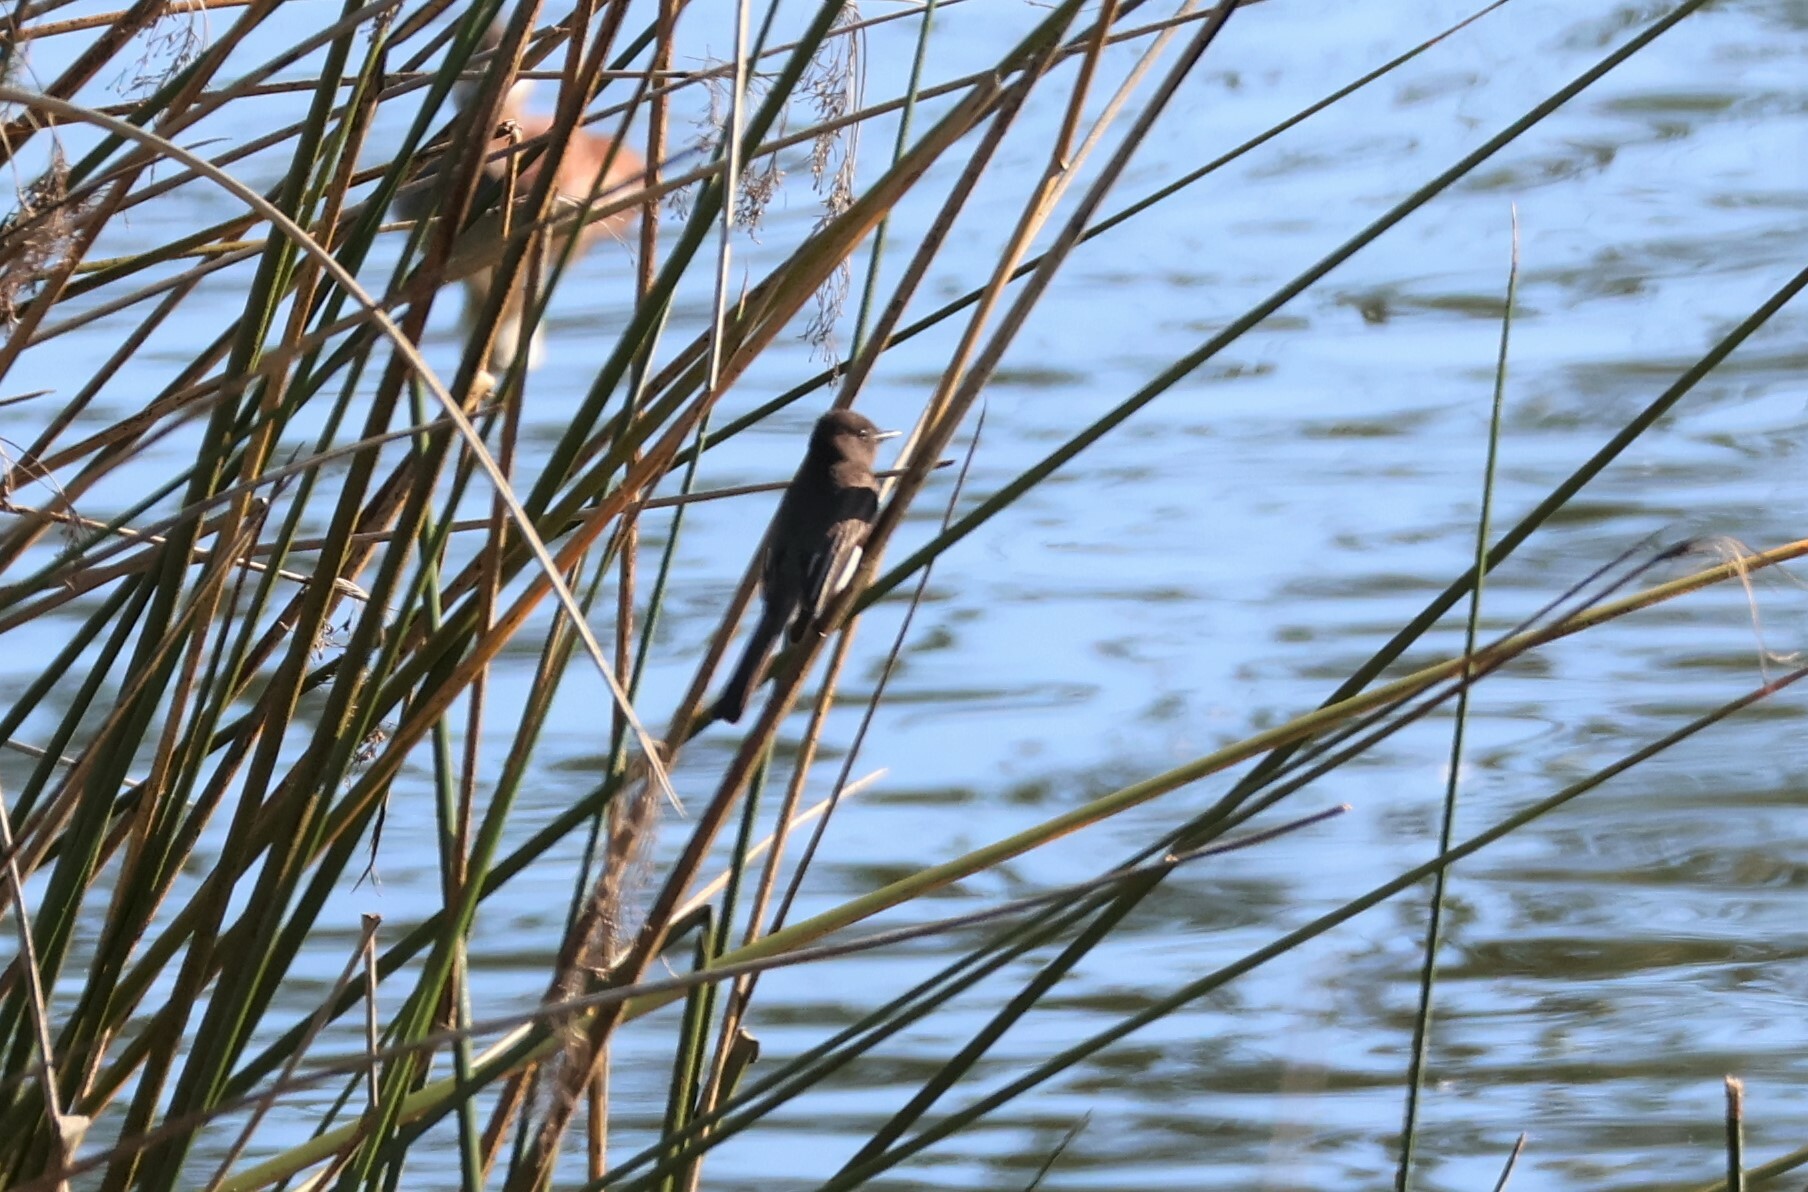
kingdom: Animalia
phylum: Chordata
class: Aves
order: Passeriformes
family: Tyrannidae
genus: Sayornis
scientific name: Sayornis nigricans
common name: Black phoebe
